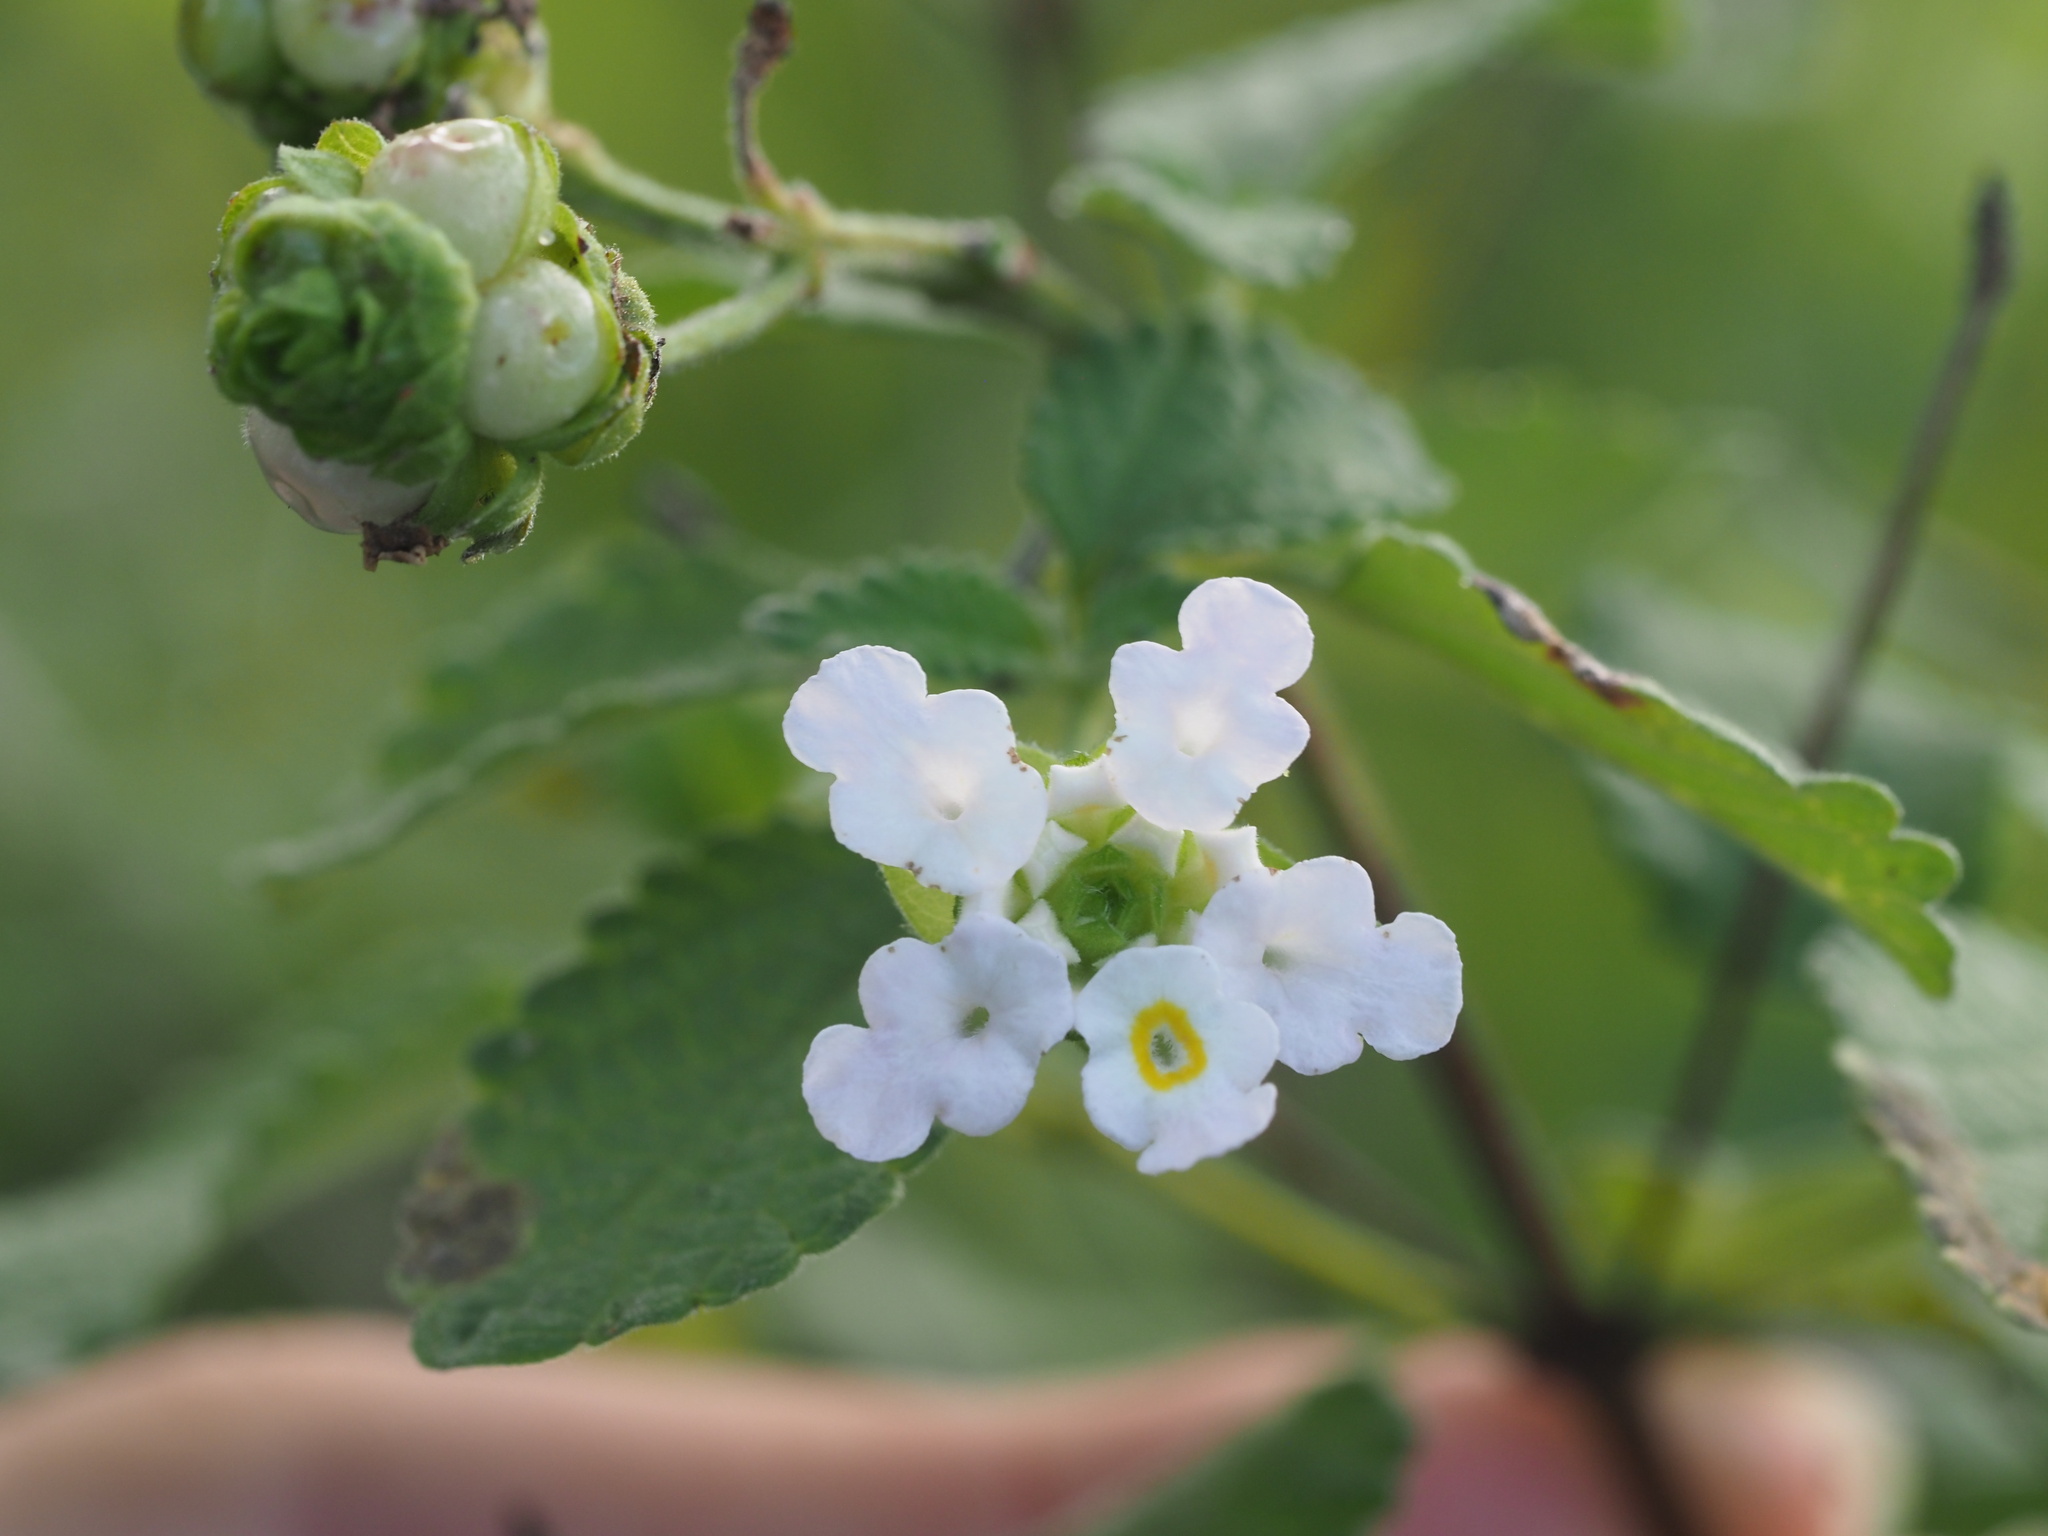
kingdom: Plantae
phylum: Tracheophyta
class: Magnoliopsida
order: Lamiales
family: Verbenaceae
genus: Lantana
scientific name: Lantana velutina
